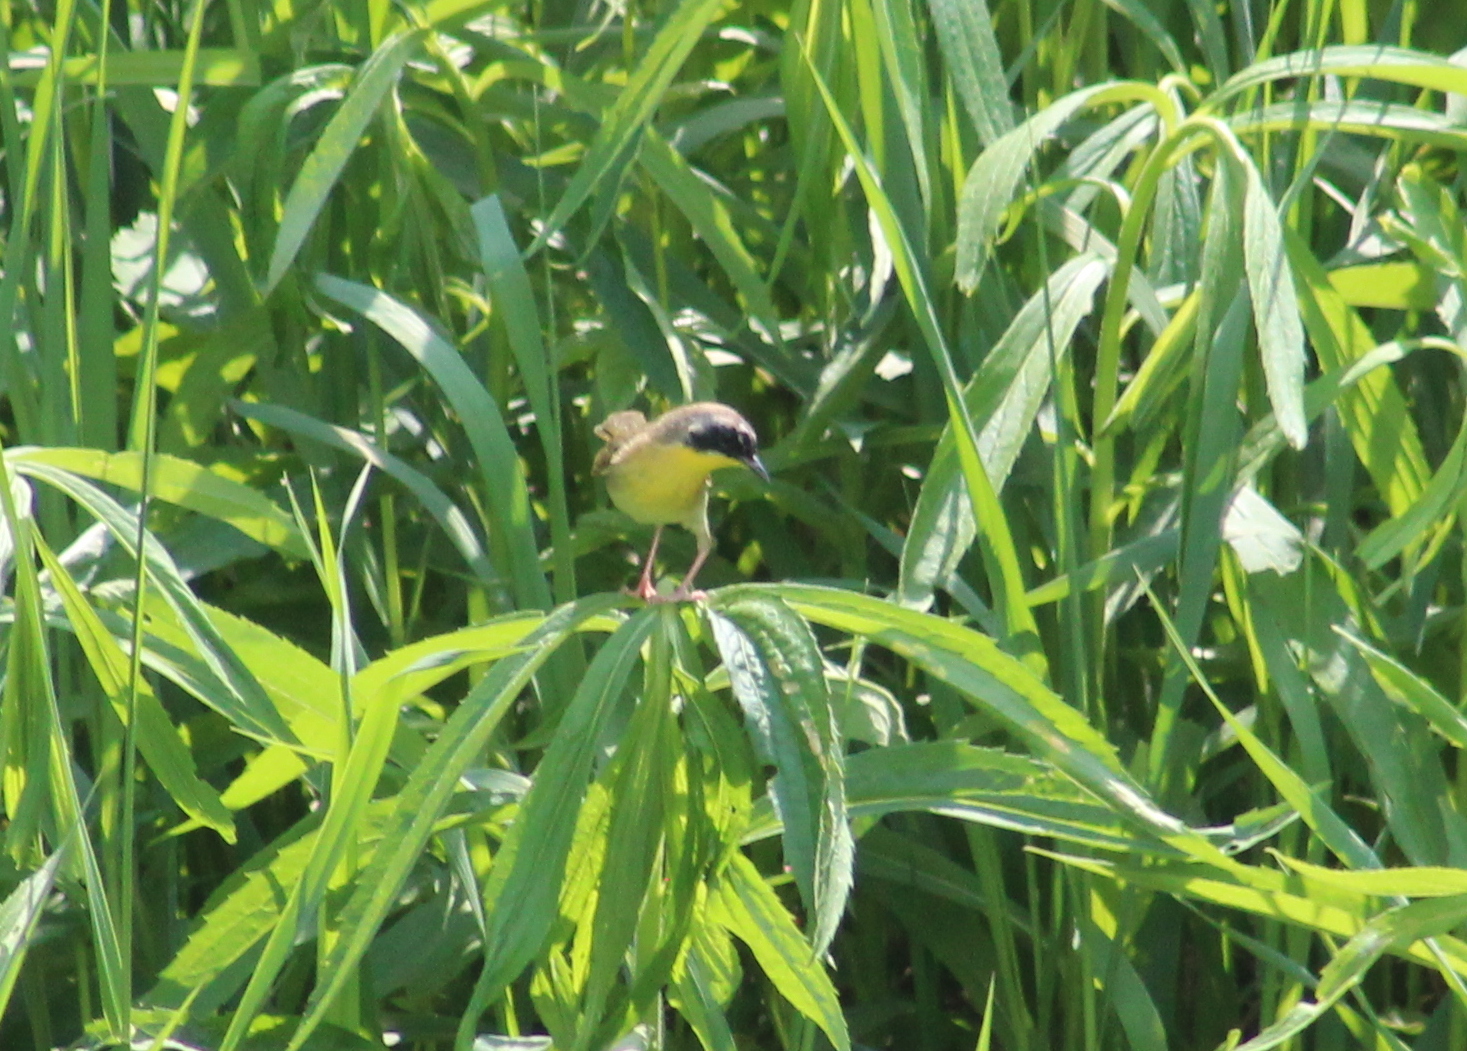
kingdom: Animalia
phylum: Chordata
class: Aves
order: Passeriformes
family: Parulidae
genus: Geothlypis
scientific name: Geothlypis trichas
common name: Common yellowthroat
